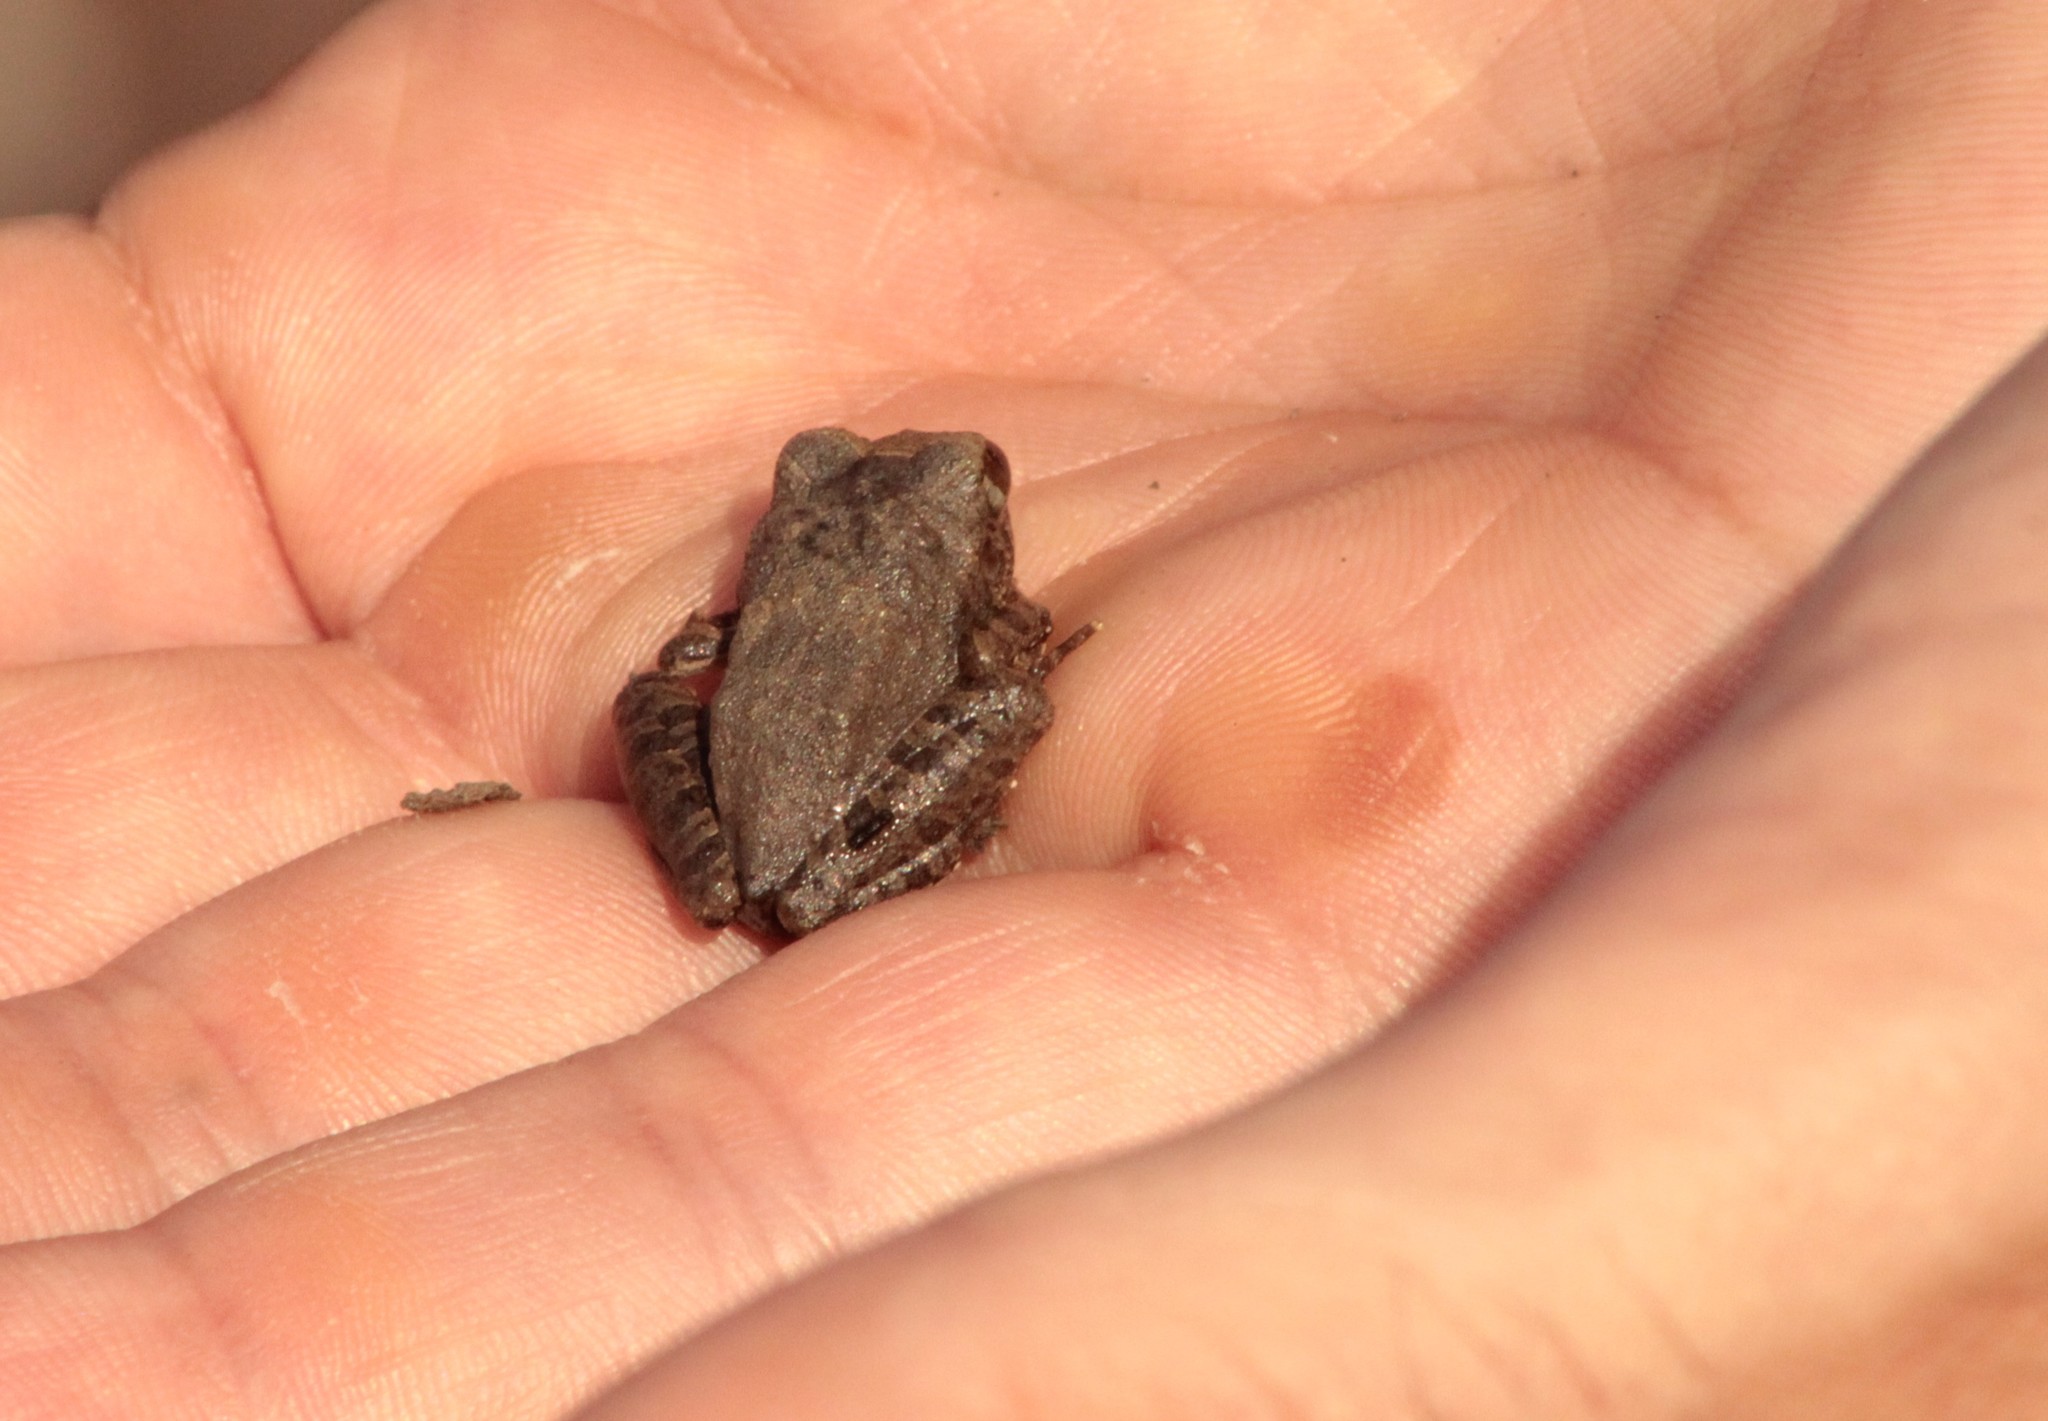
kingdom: Animalia
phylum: Chordata
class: Amphibia
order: Anura
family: Alsodidae
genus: Limnomedusa
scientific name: Limnomedusa macroglossa
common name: Rapids frog
